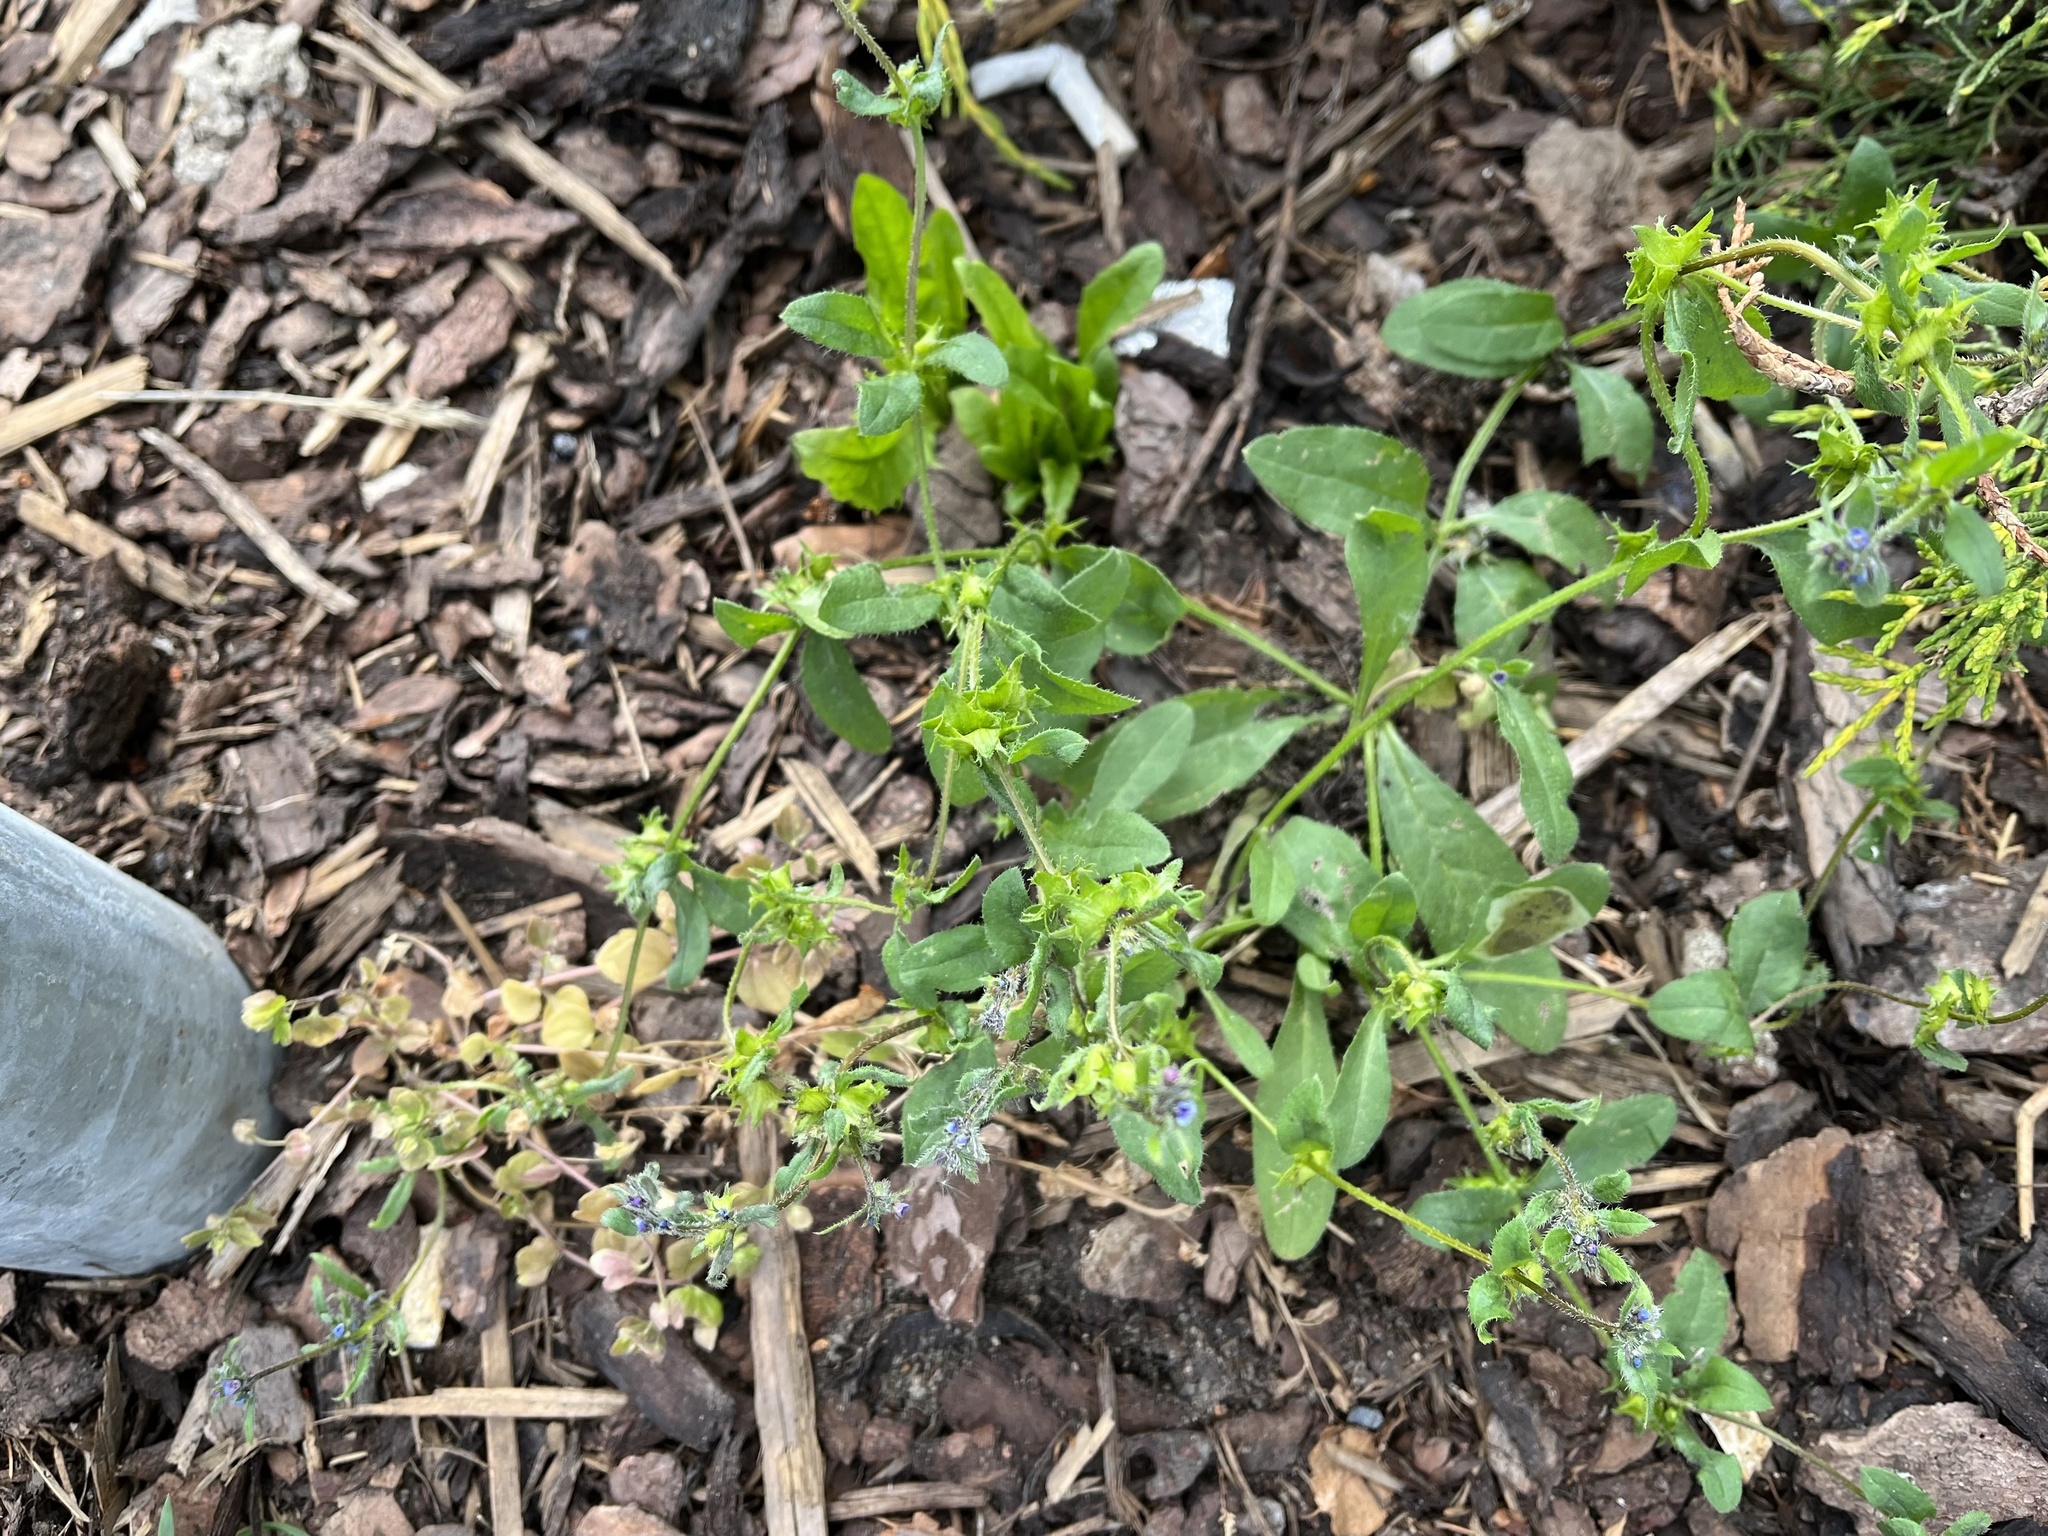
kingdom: Plantae
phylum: Tracheophyta
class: Magnoliopsida
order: Boraginales
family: Boraginaceae
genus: Asperugo
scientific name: Asperugo procumbens
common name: Madwort
